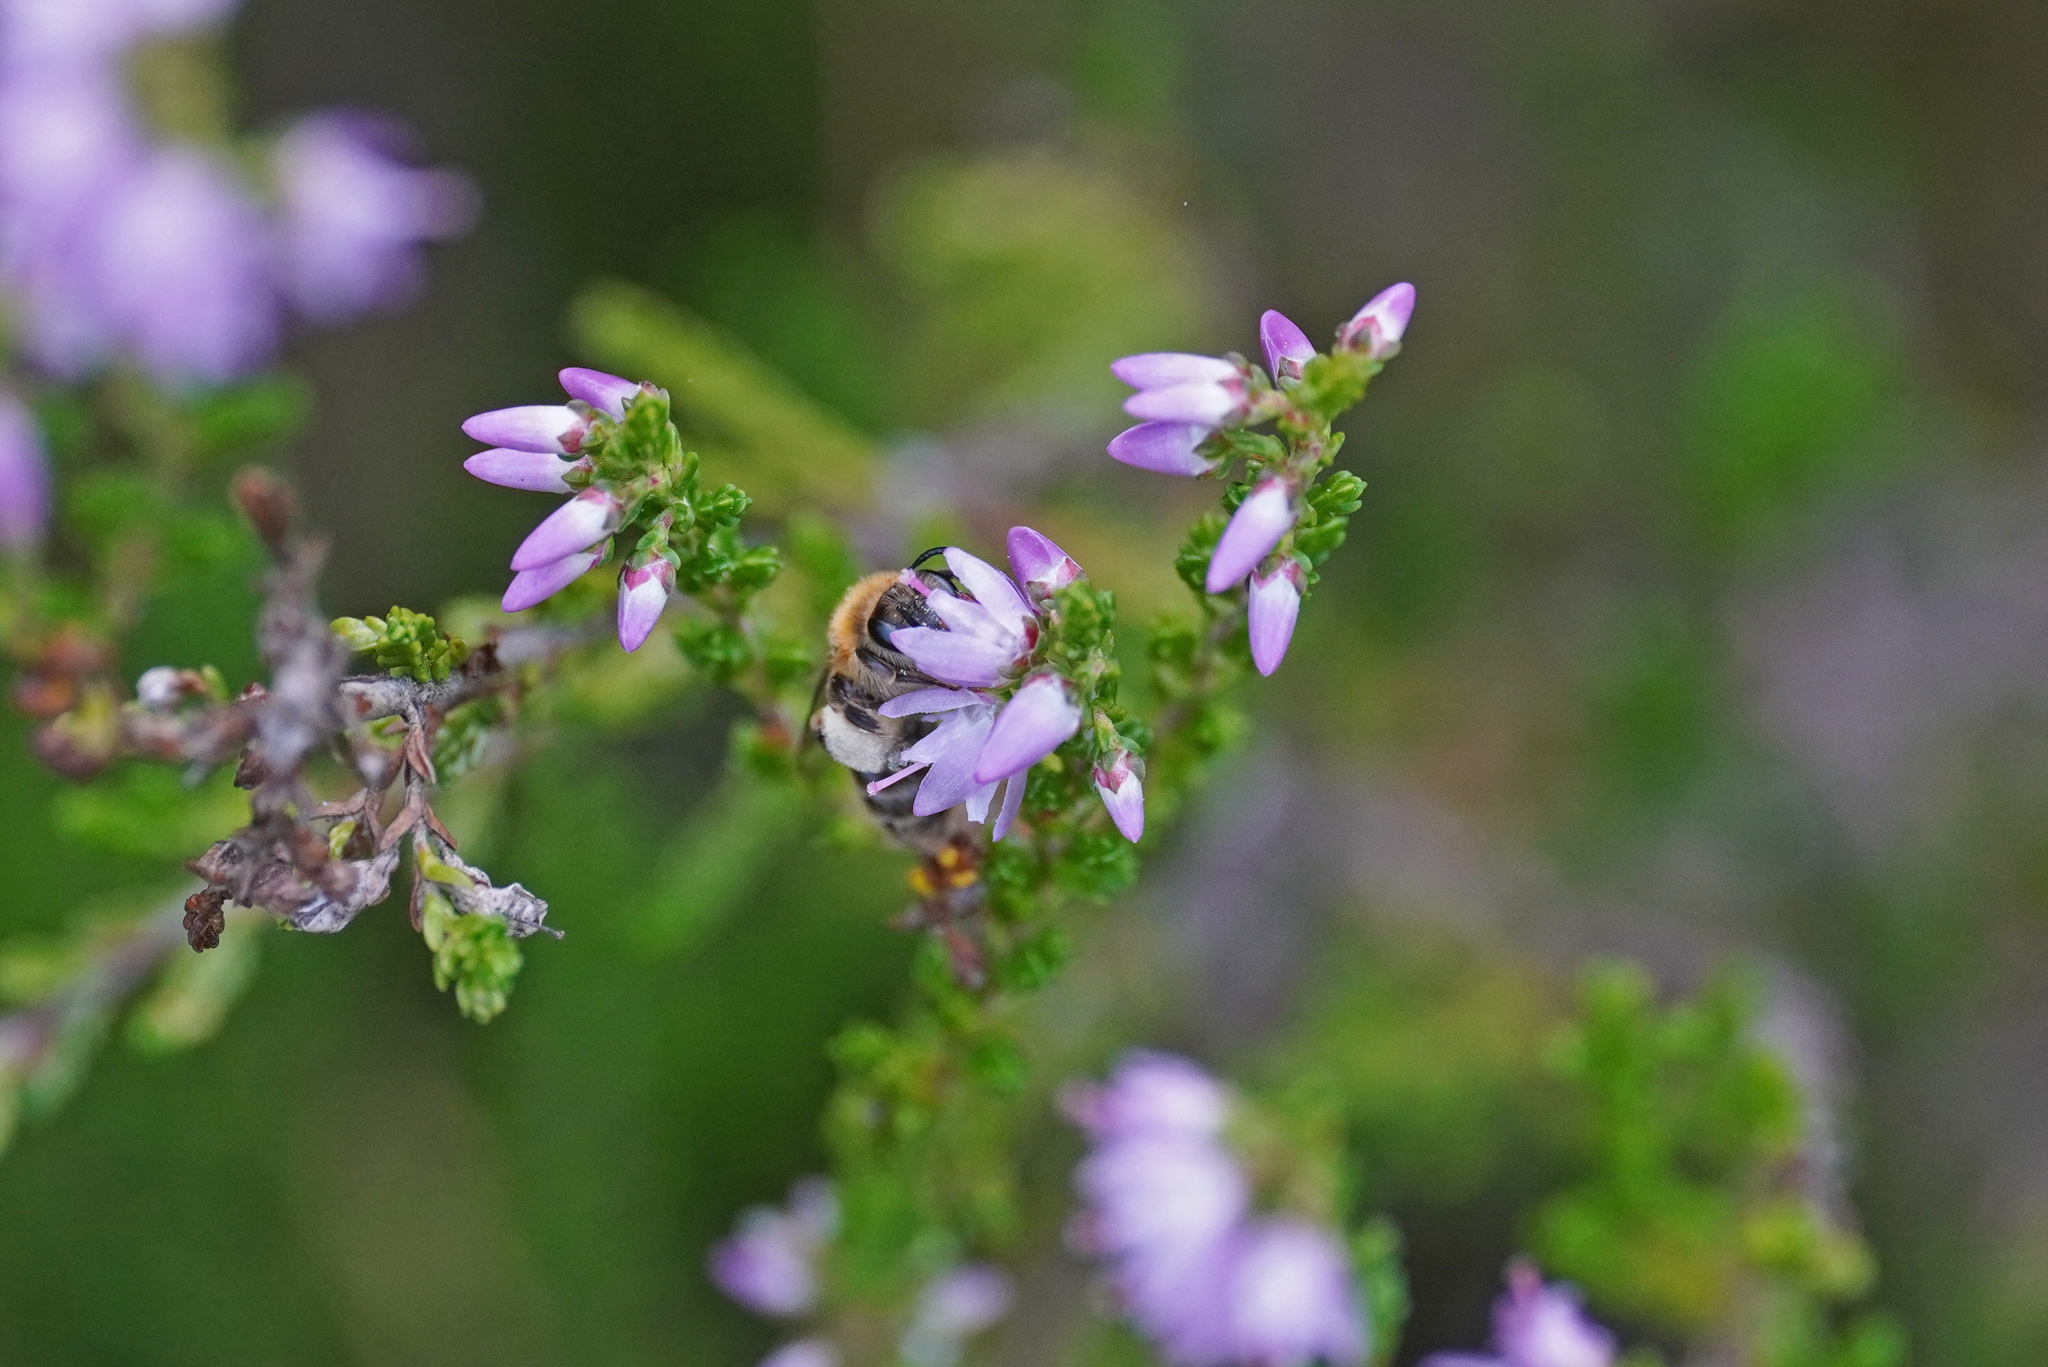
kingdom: Animalia
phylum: Arthropoda
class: Insecta
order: Hymenoptera
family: Andrenidae
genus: Andrena
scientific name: Andrena fuscipes
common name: Heather mining bee
